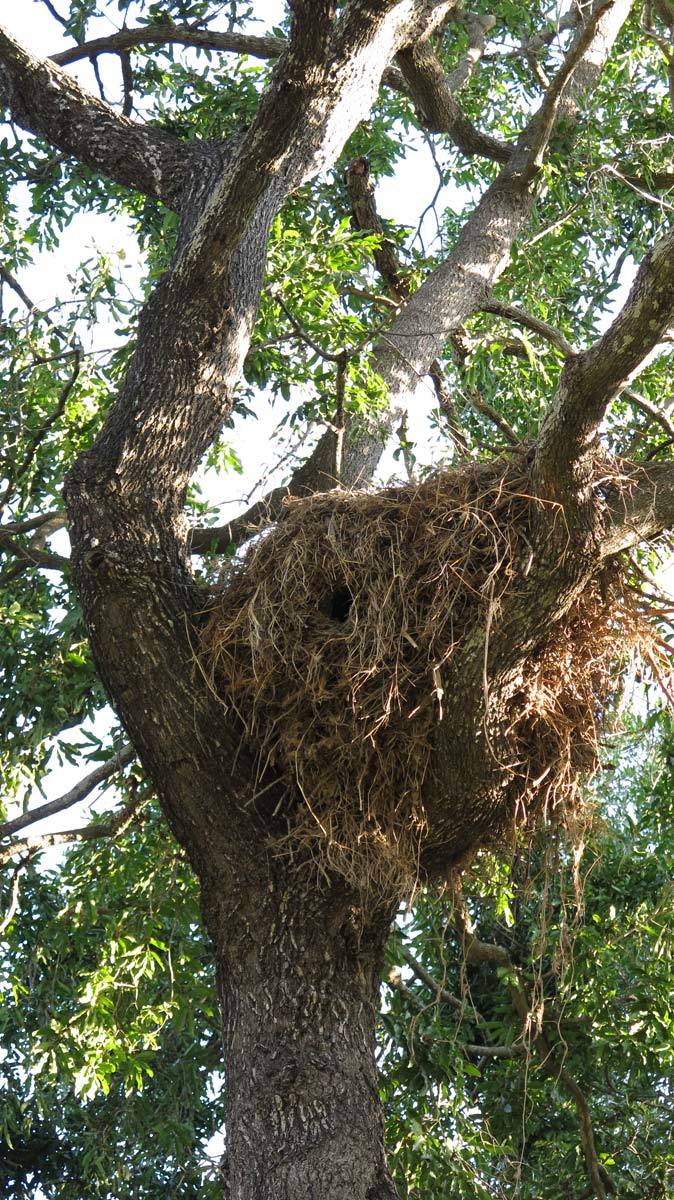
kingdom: Animalia
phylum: Chordata
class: Aves
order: Pelecaniformes
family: Scopidae
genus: Scopus
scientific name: Scopus umbretta
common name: Hamerkop
